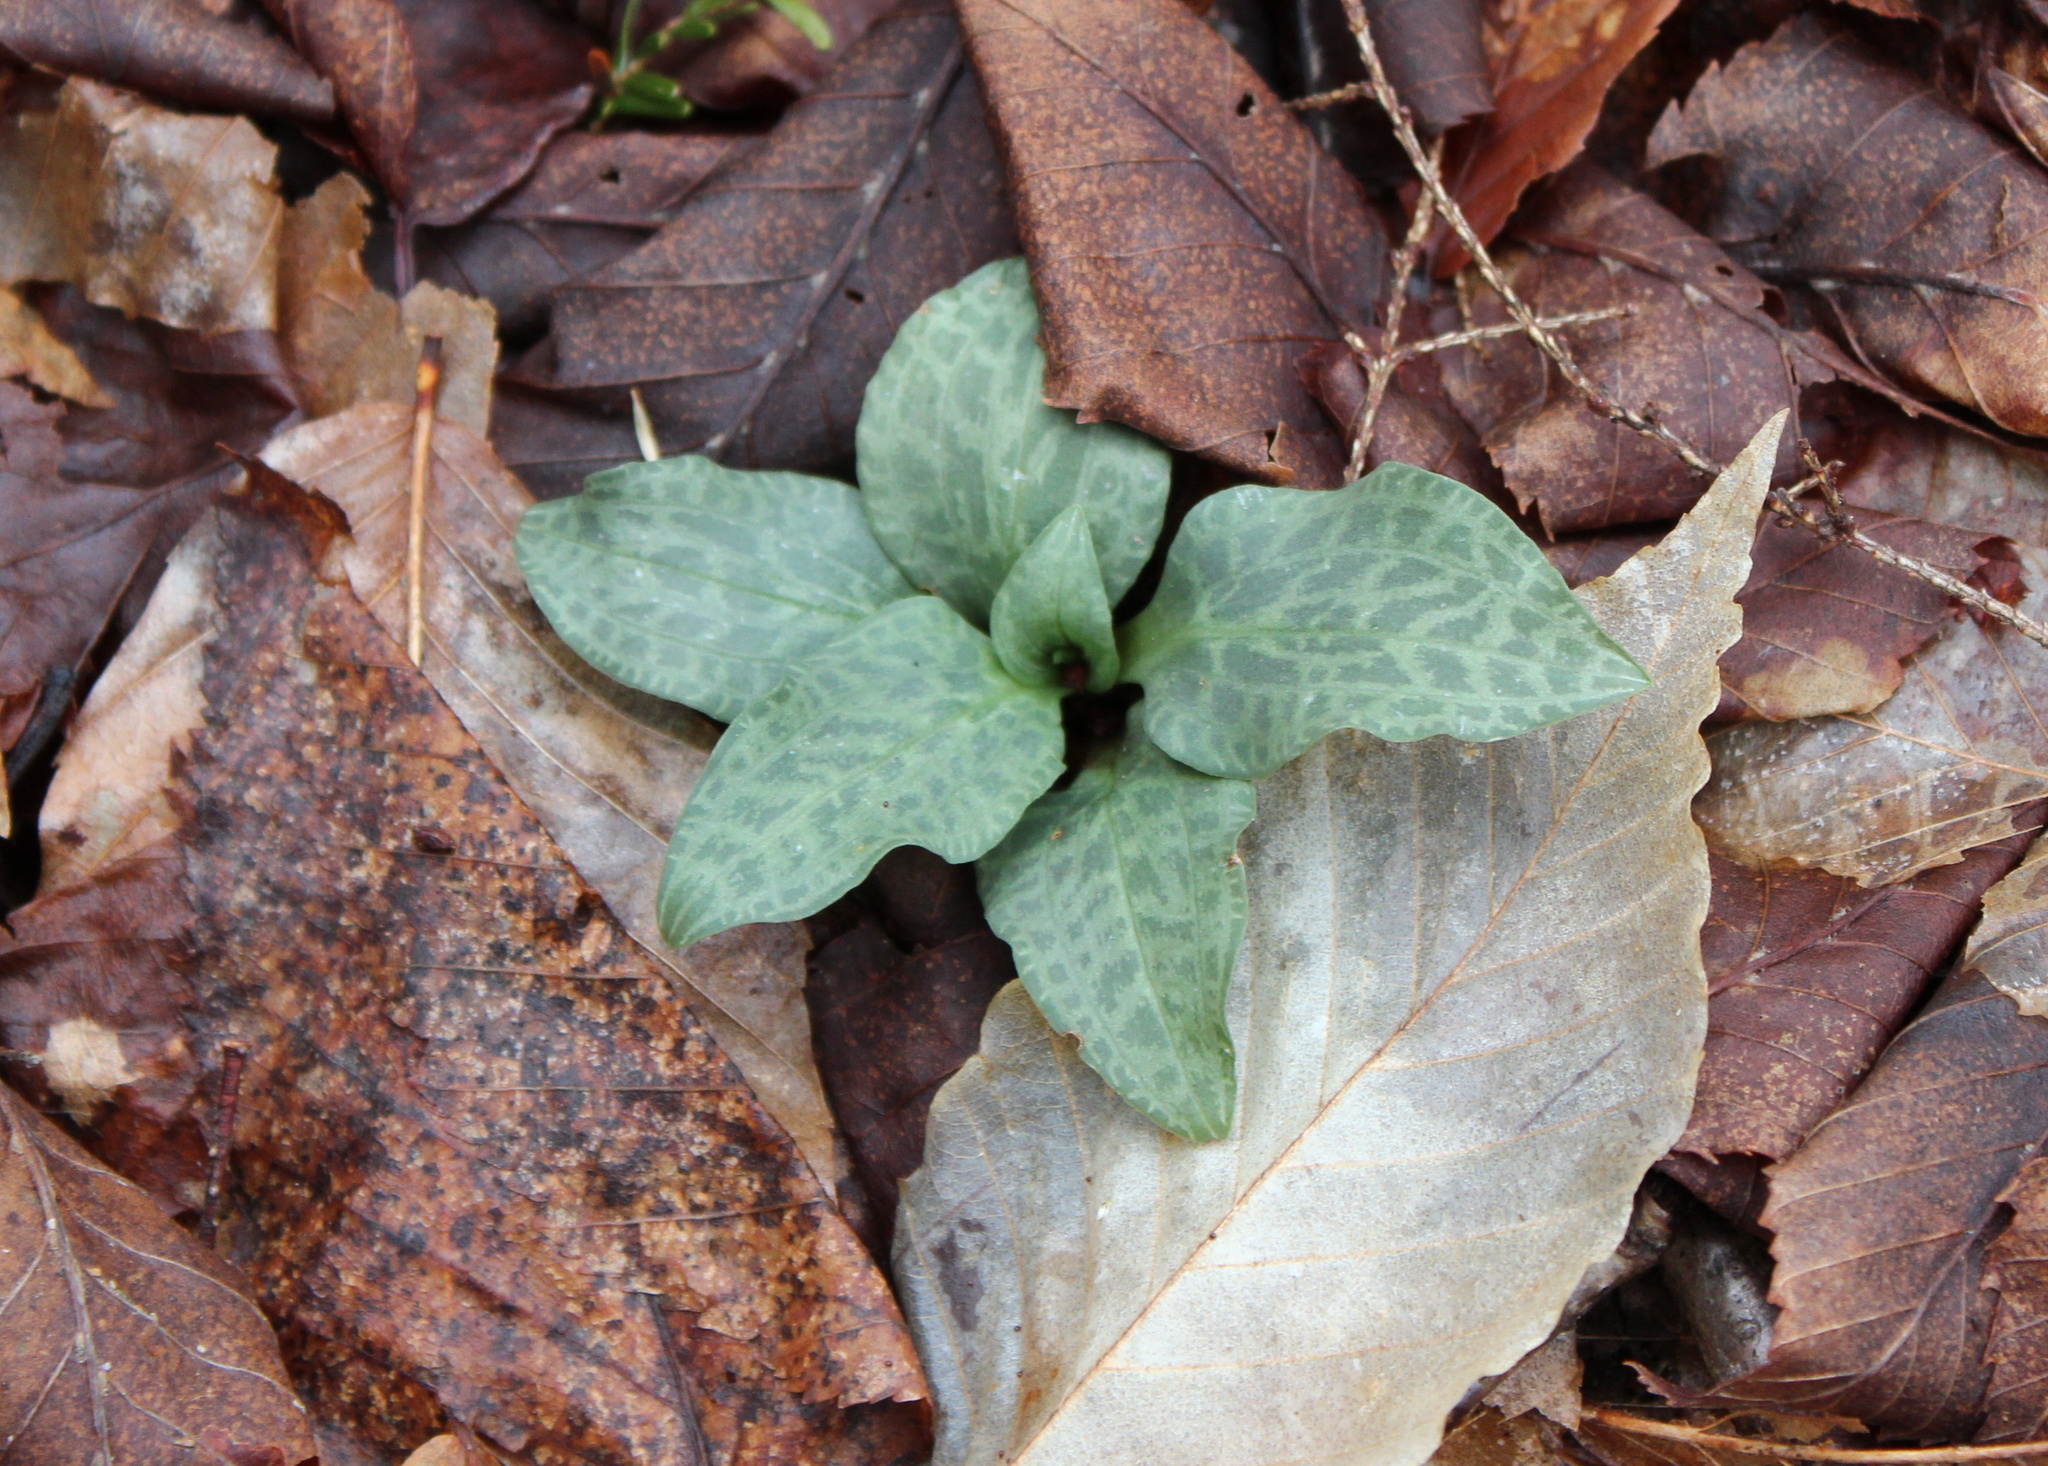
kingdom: Plantae
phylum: Tracheophyta
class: Liliopsida
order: Asparagales
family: Orchidaceae
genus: Goodyera
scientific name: Goodyera tesselata
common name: Checkered rattlesnake-plantain
